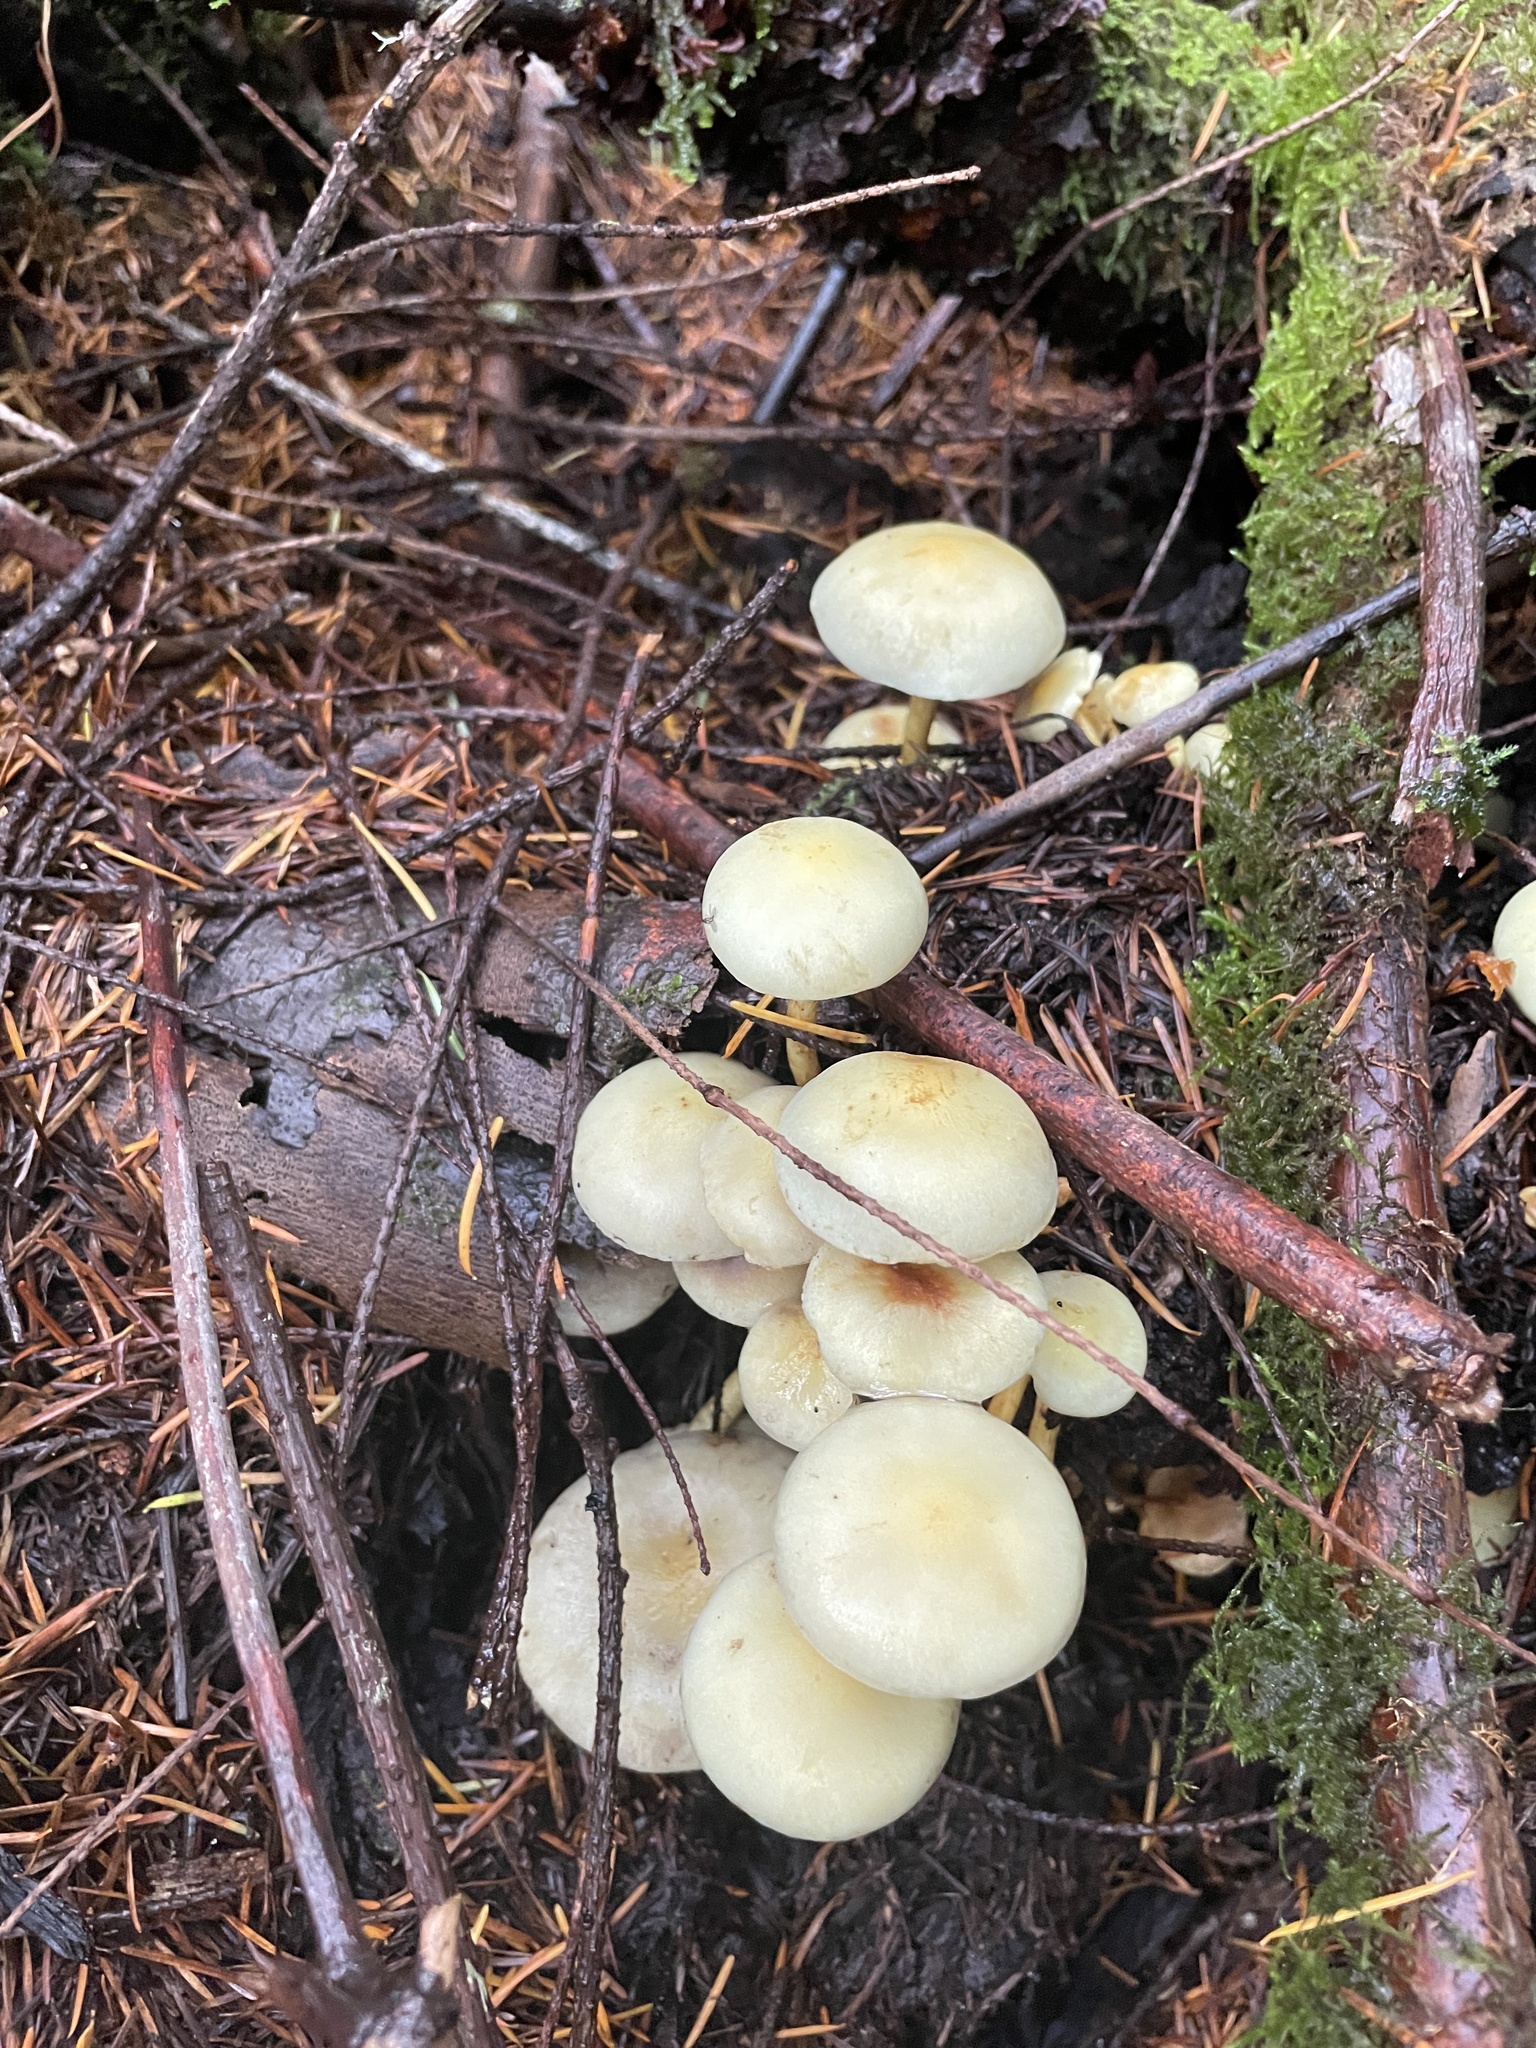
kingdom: Fungi
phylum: Basidiomycota
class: Agaricomycetes
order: Agaricales
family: Strophariaceae
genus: Hypholoma
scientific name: Hypholoma fasciculare
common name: Sulphur tuft
